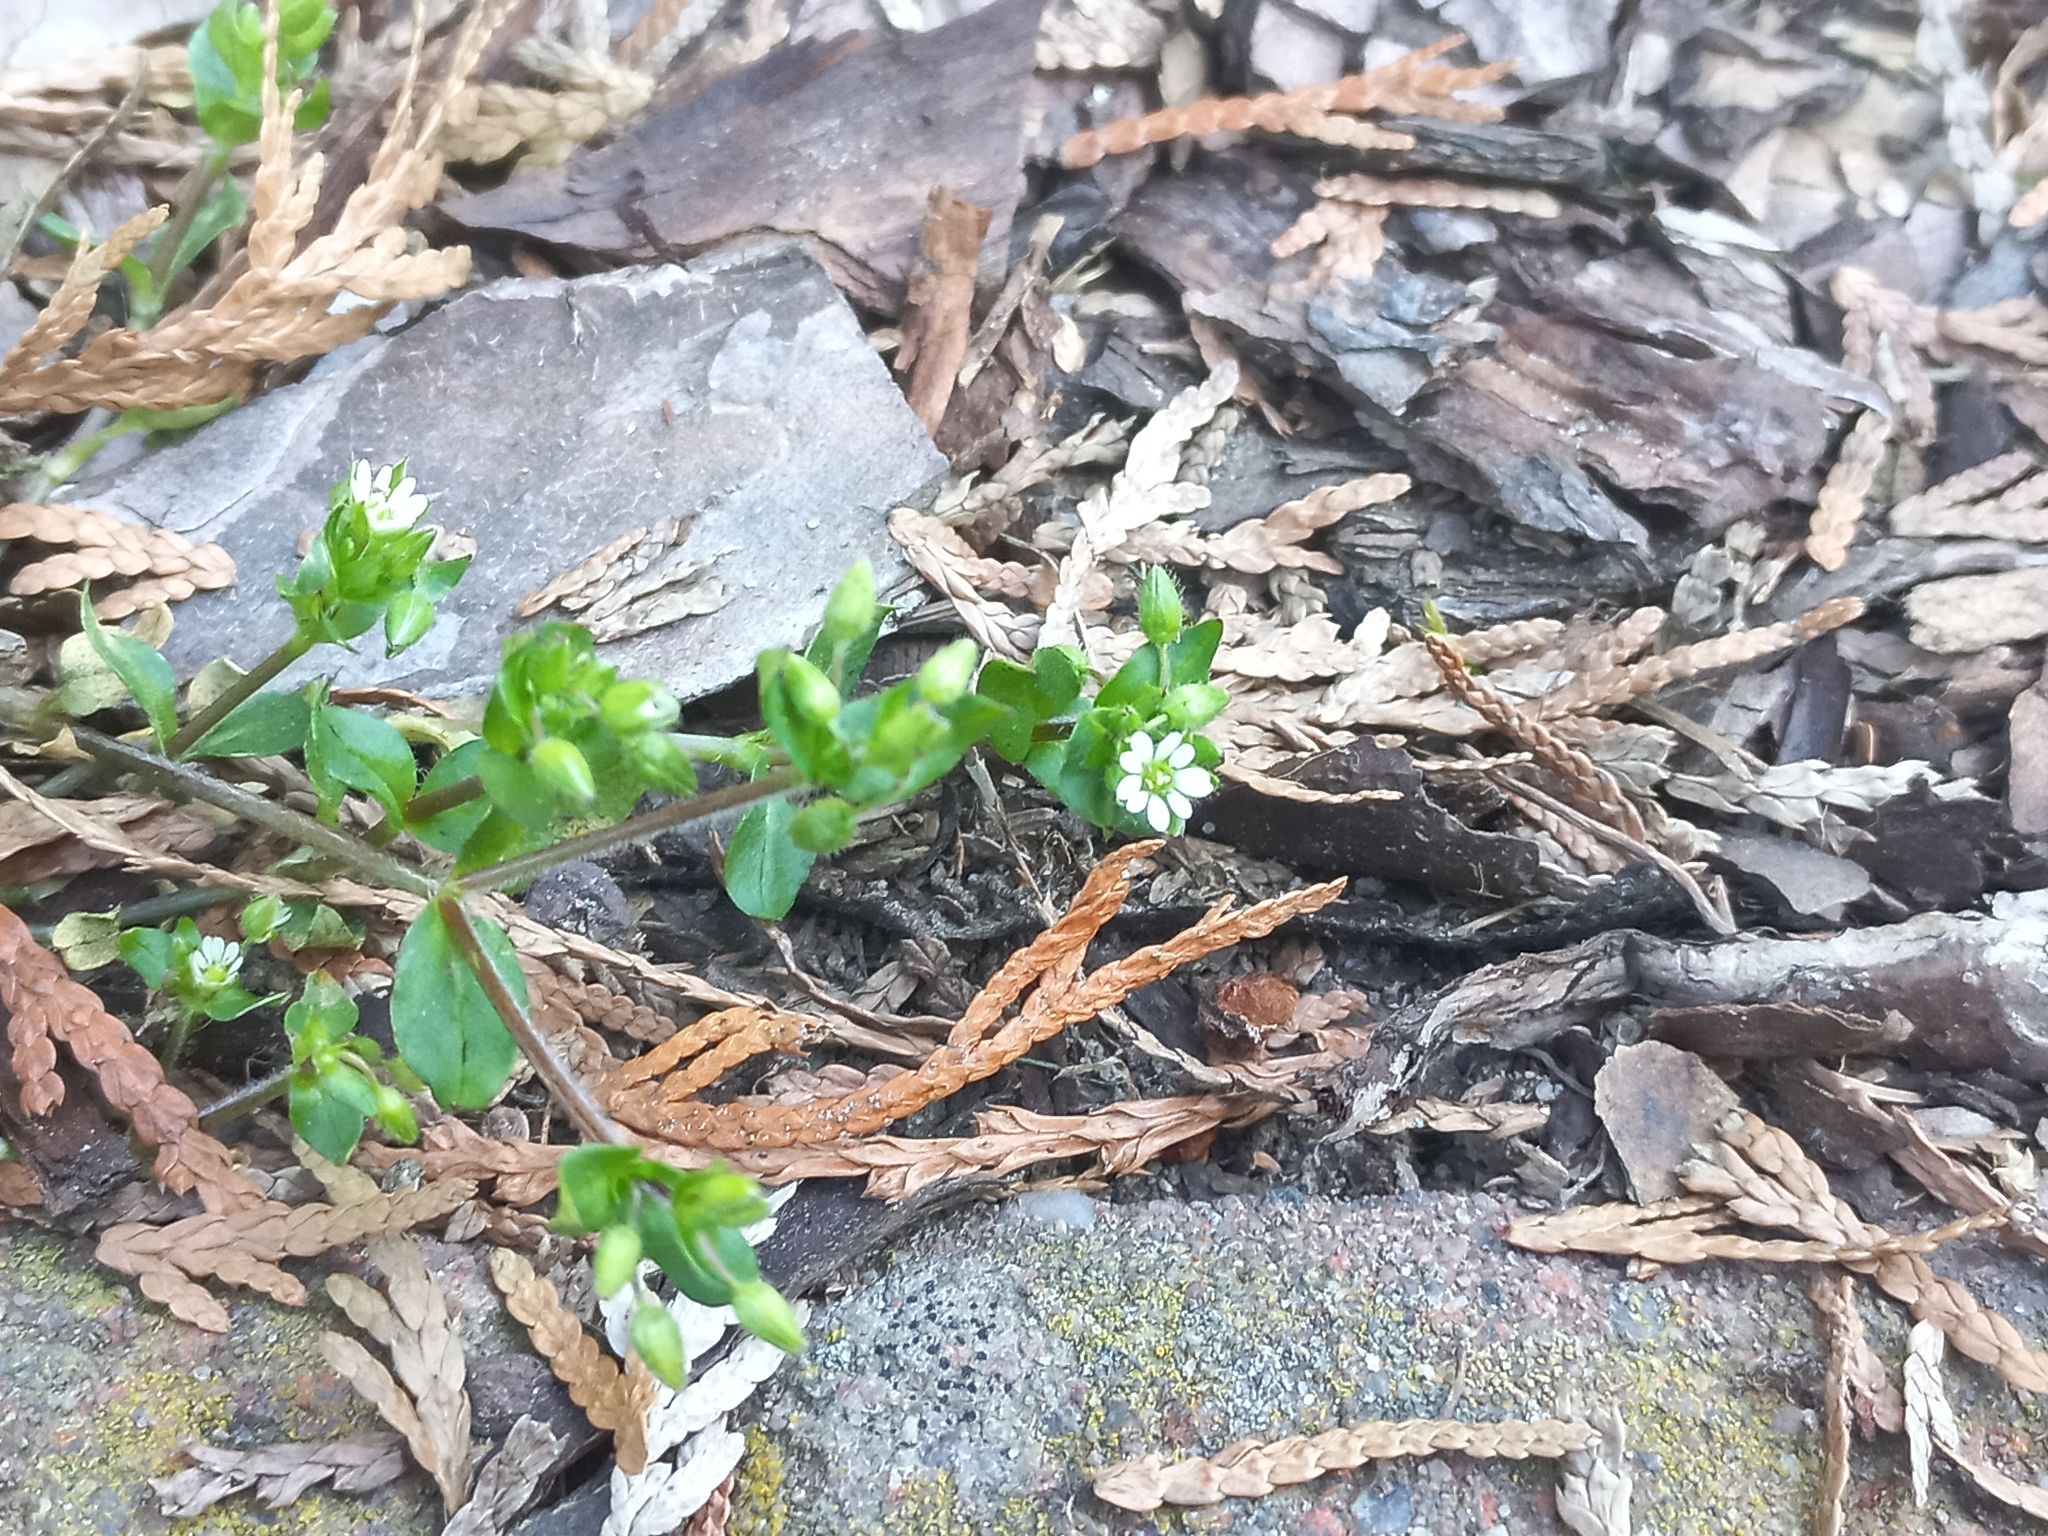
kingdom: Plantae
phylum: Tracheophyta
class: Magnoliopsida
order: Caryophyllales
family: Caryophyllaceae
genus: Stellaria
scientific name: Stellaria media
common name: Common chickweed
